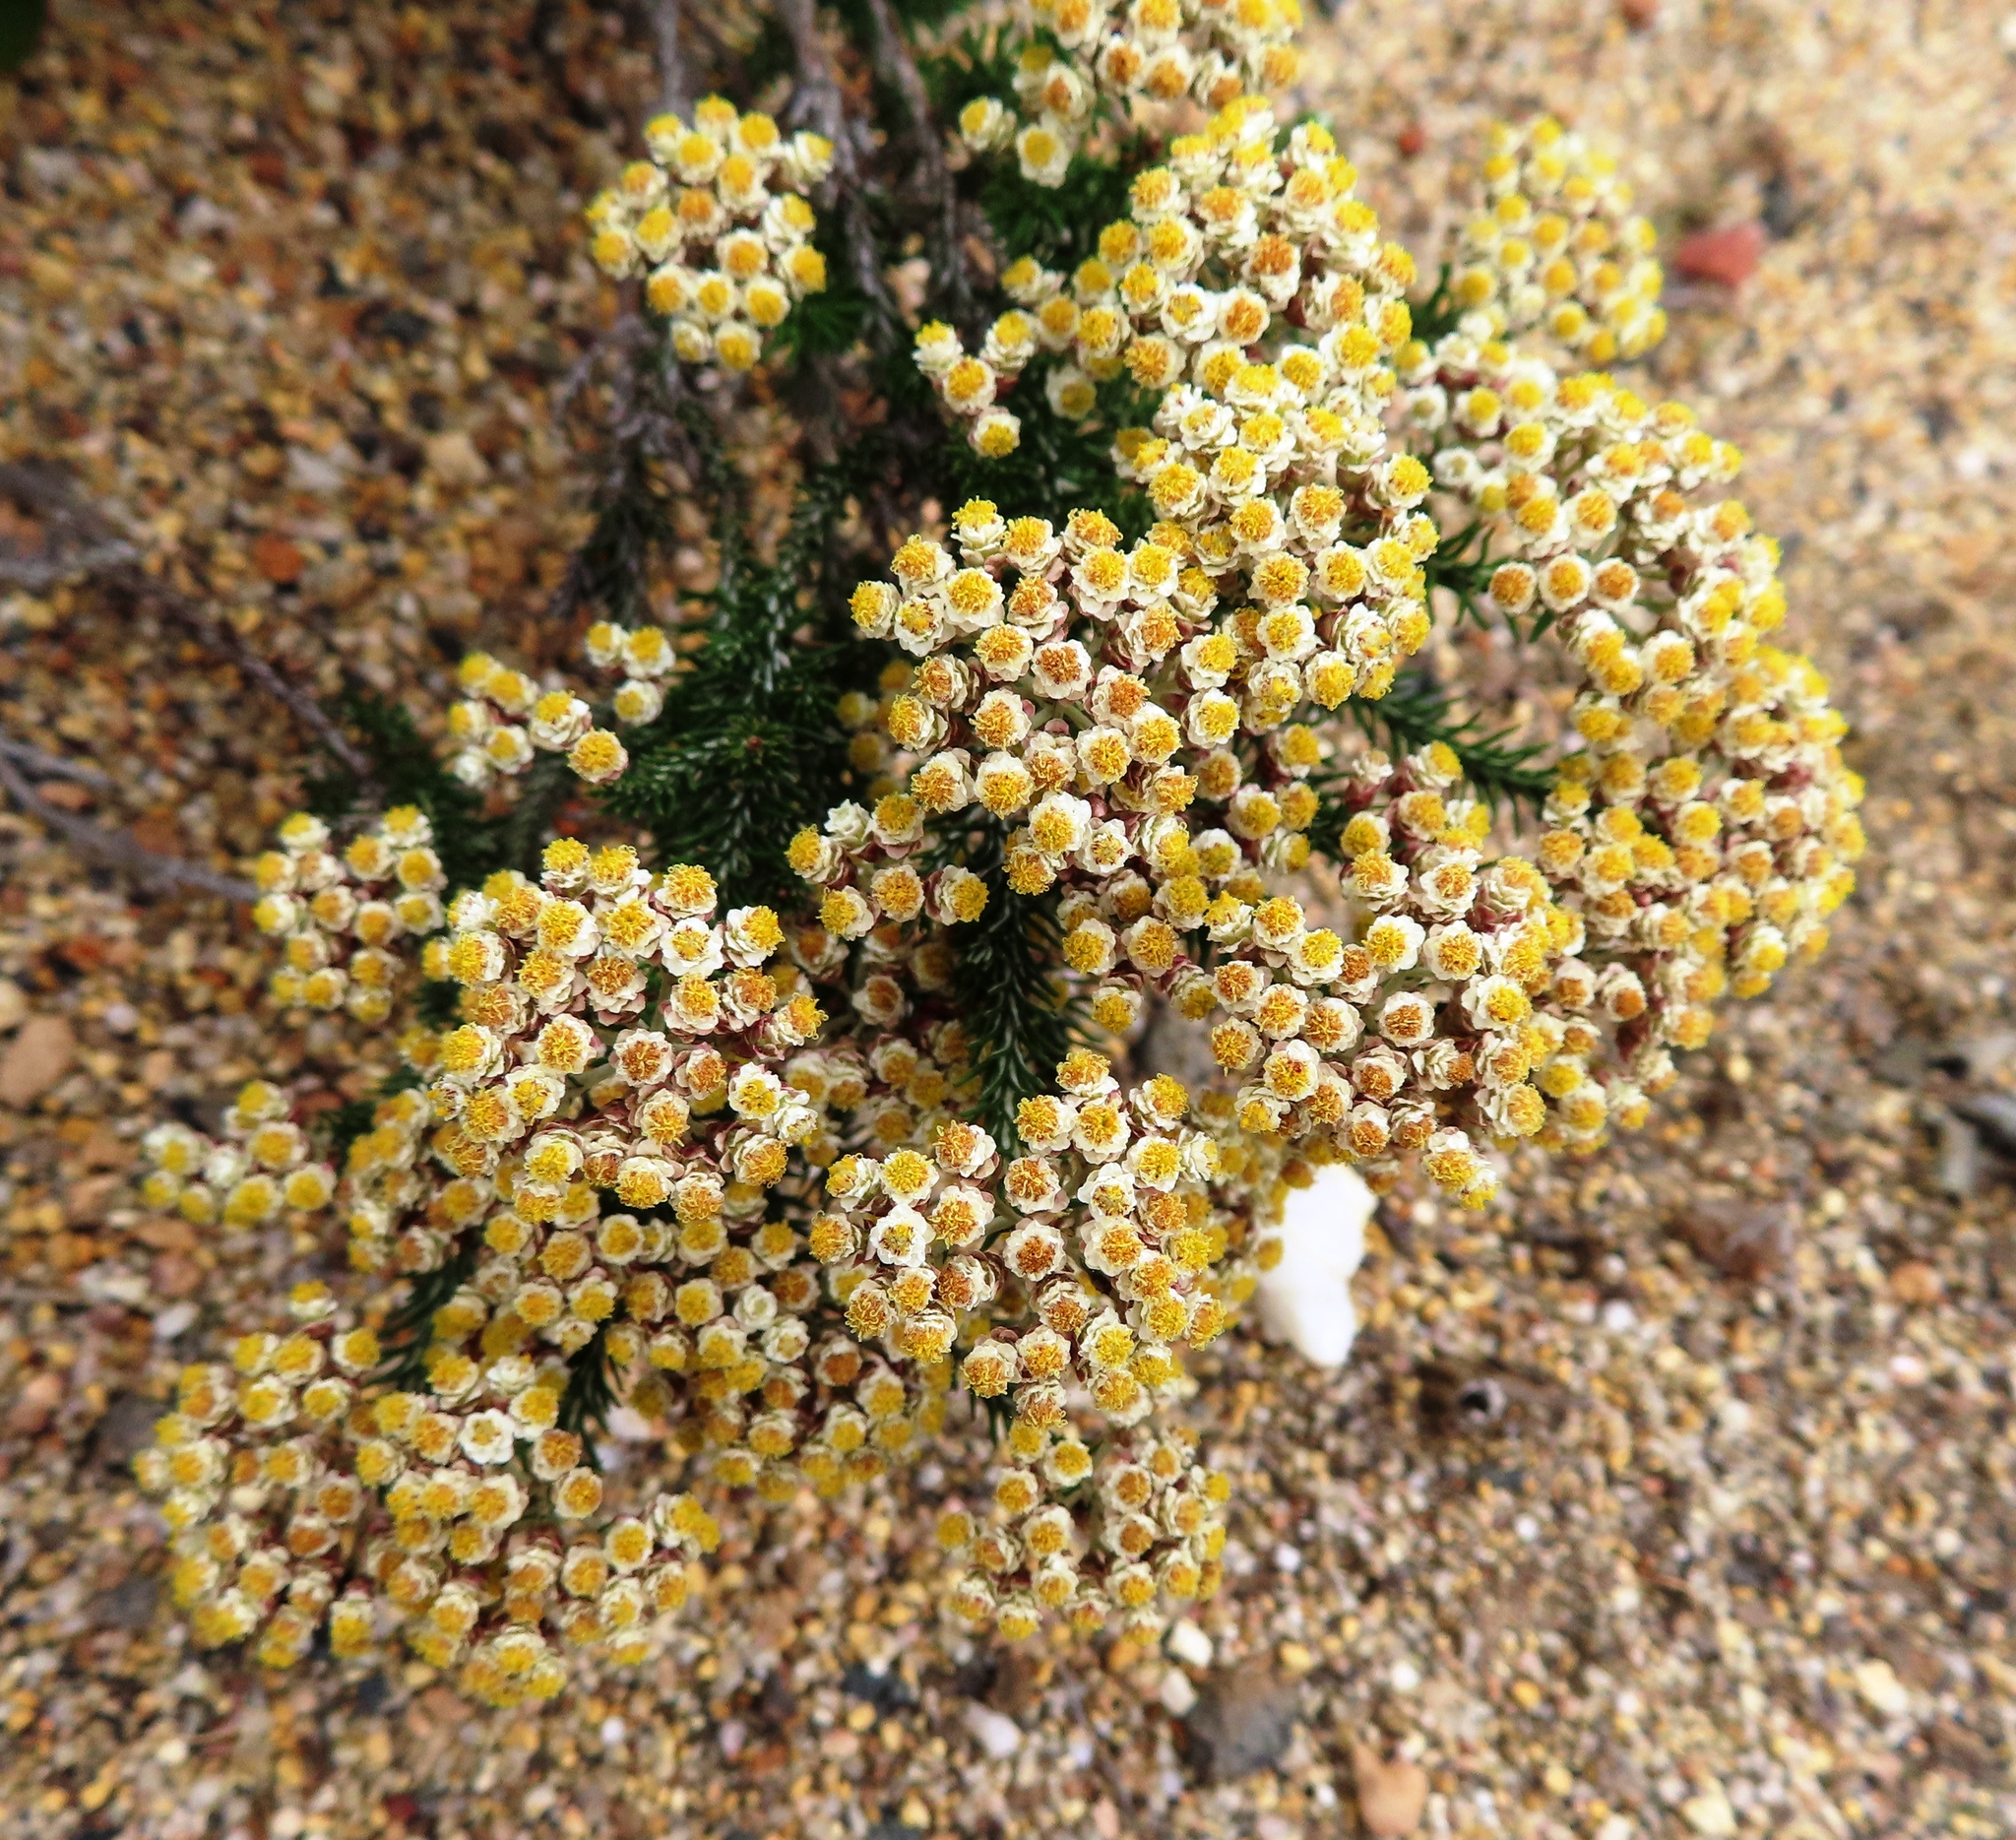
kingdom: Plantae
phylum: Tracheophyta
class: Magnoliopsida
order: Asterales
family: Asteraceae
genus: Helichrysum
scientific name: Helichrysum teretifolium
